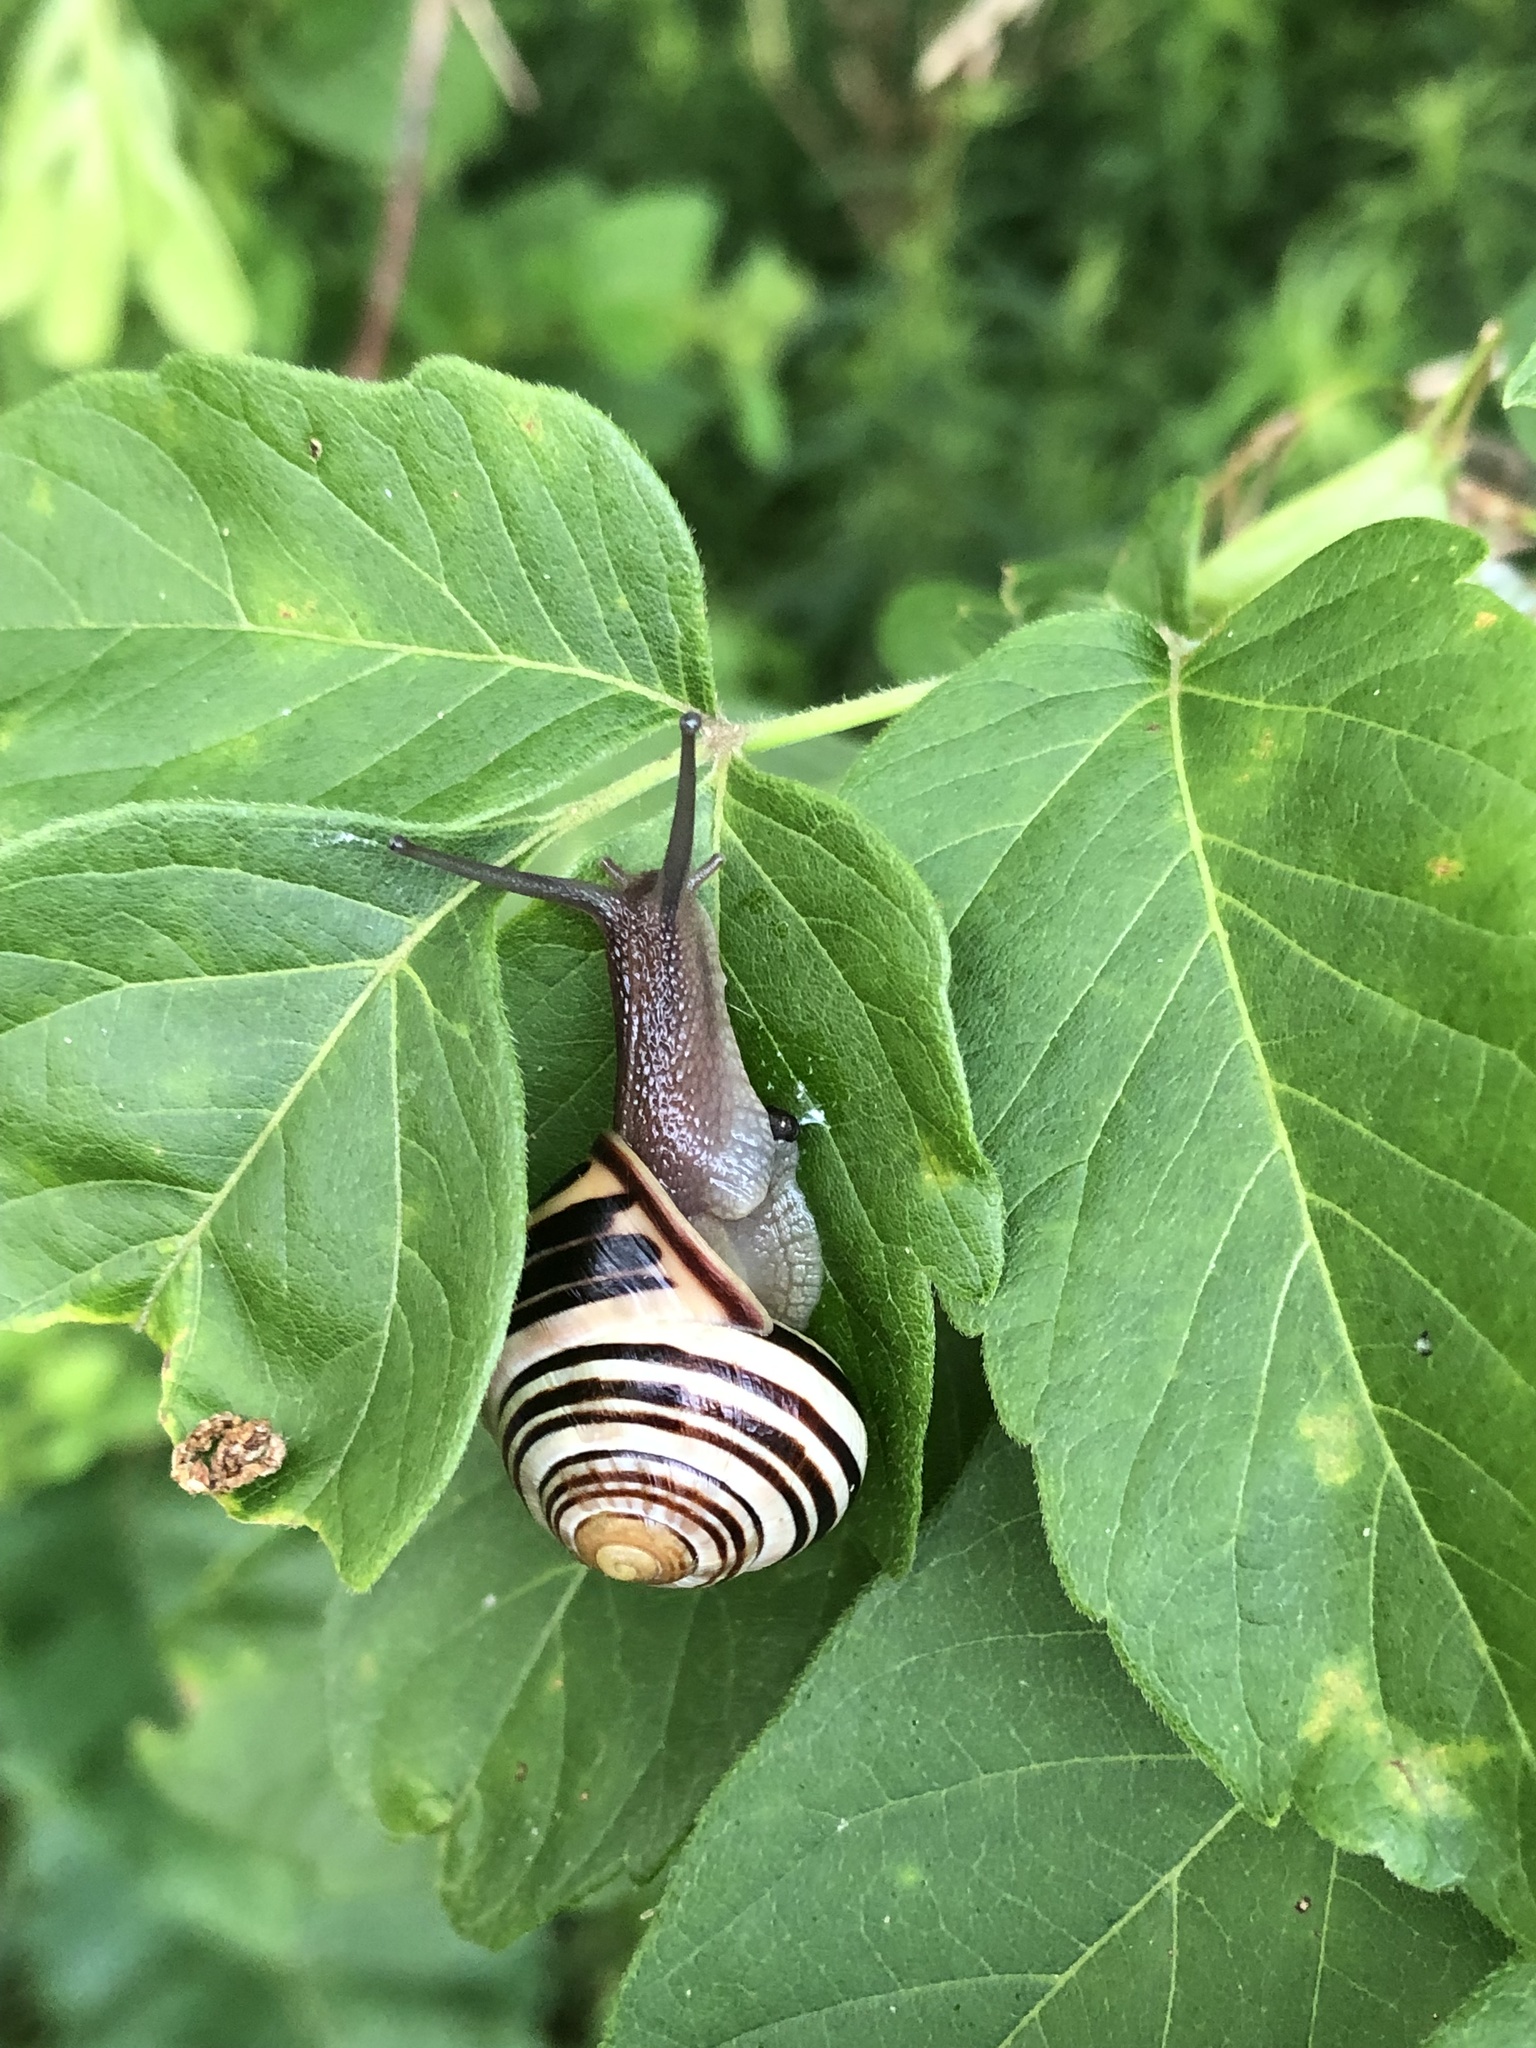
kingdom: Animalia
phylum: Mollusca
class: Gastropoda
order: Stylommatophora
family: Helicidae
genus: Cepaea
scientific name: Cepaea nemoralis
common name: Grovesnail
